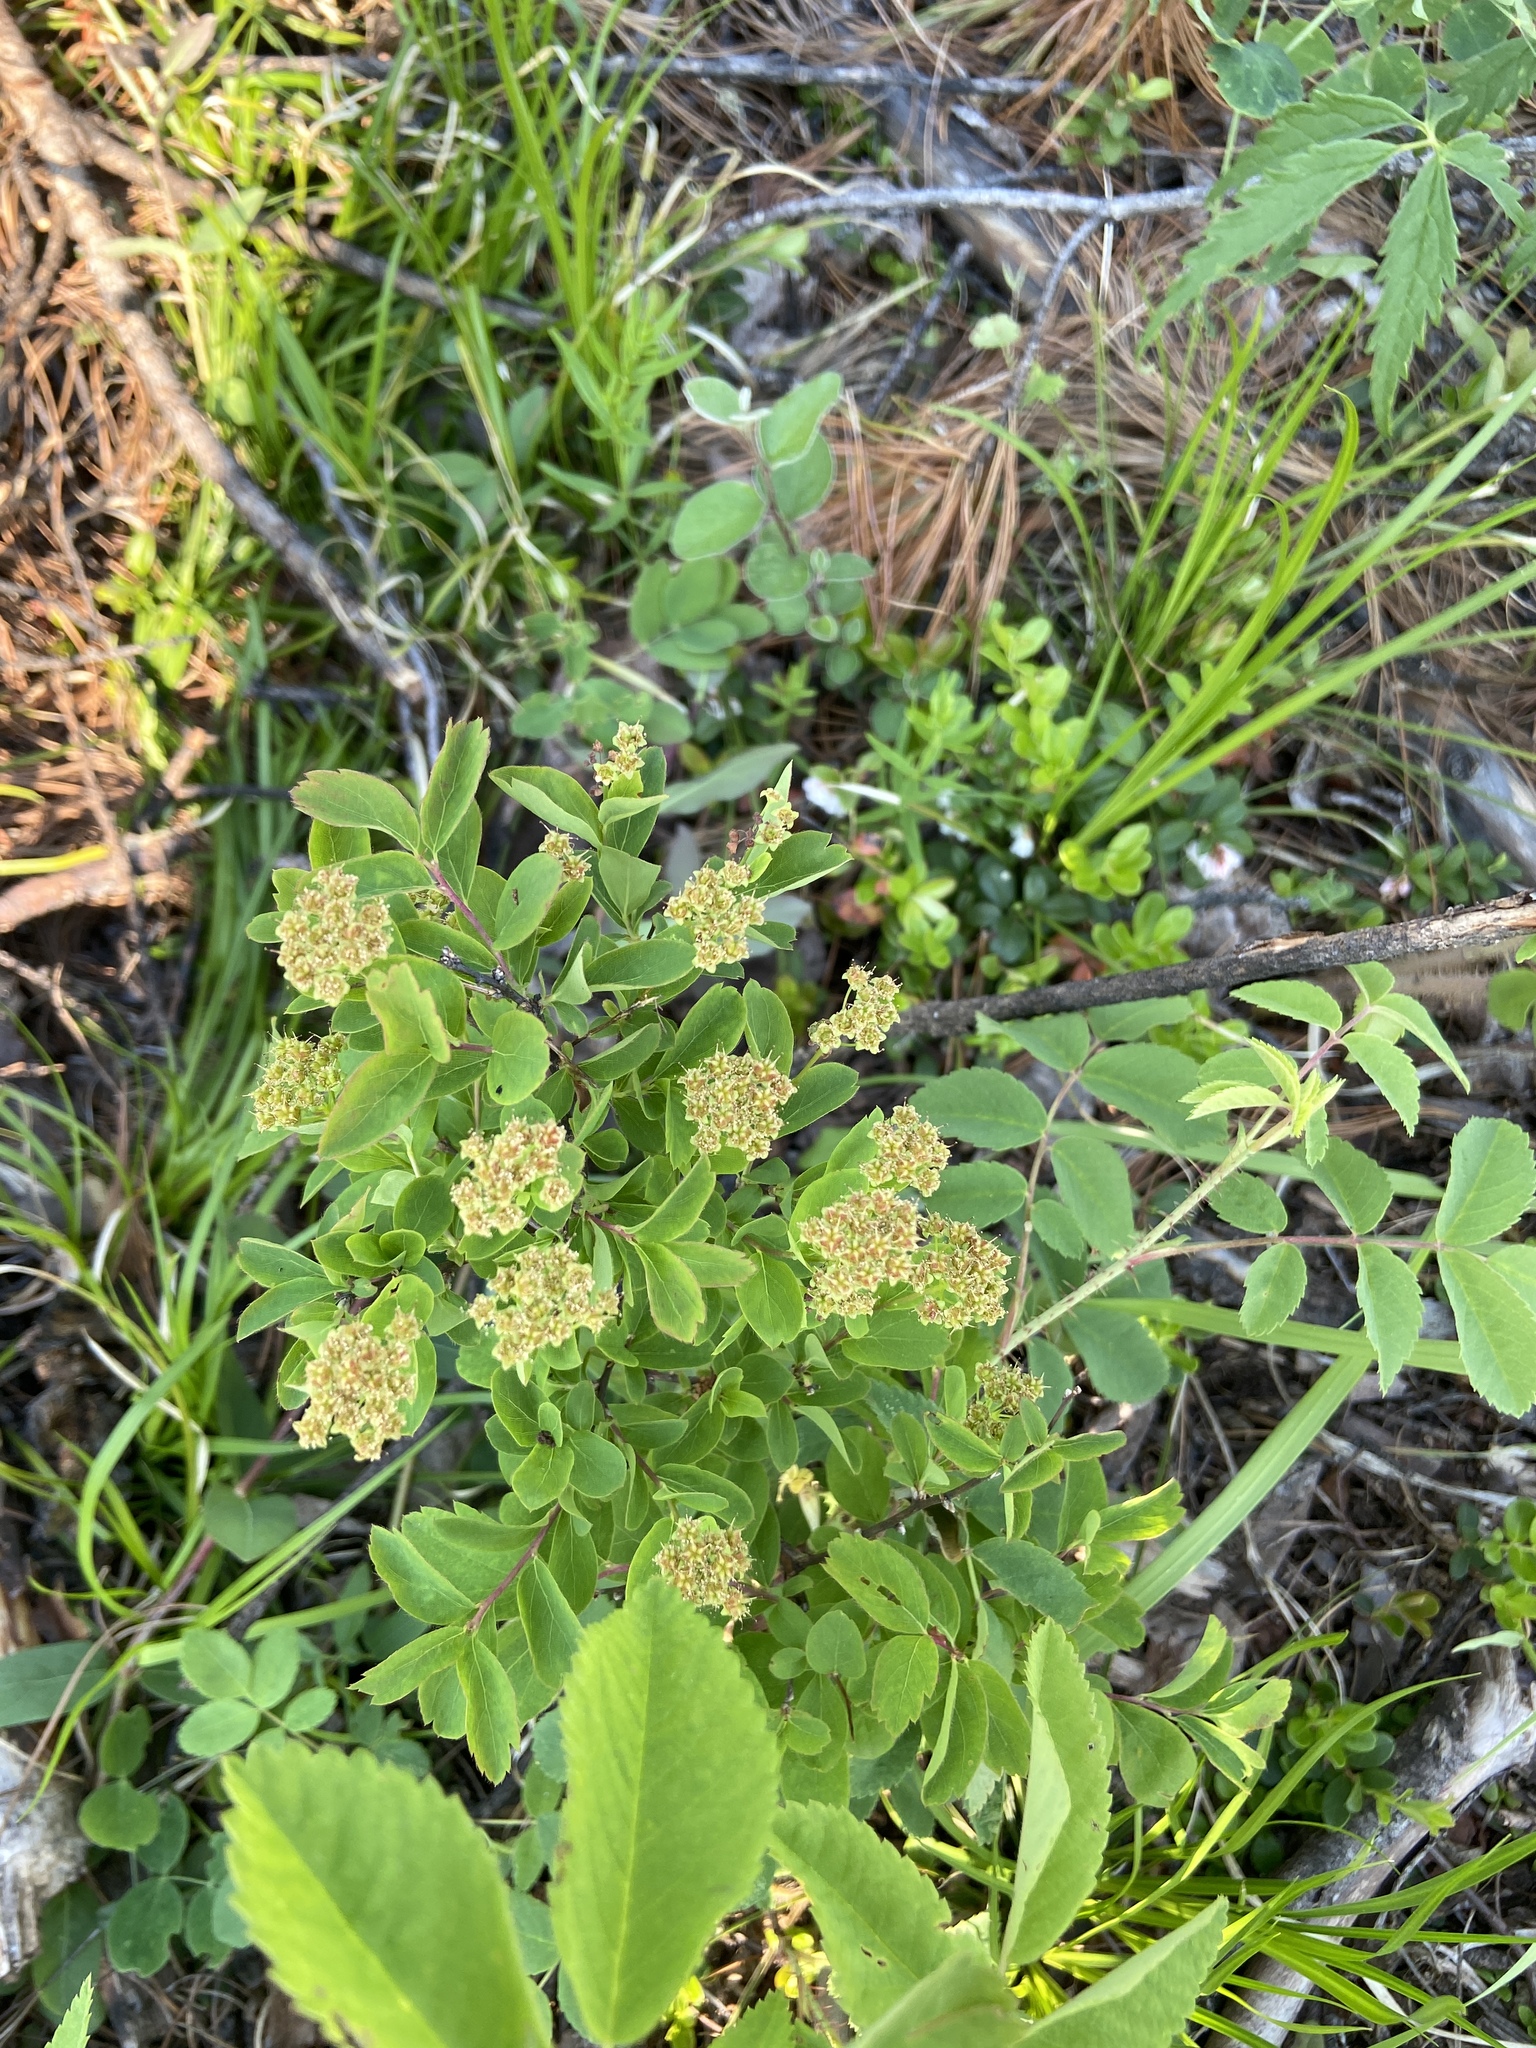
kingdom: Plantae
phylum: Tracheophyta
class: Magnoliopsida
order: Rosales
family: Rosaceae
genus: Spiraea
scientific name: Spiraea media
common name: Russian spiraea
